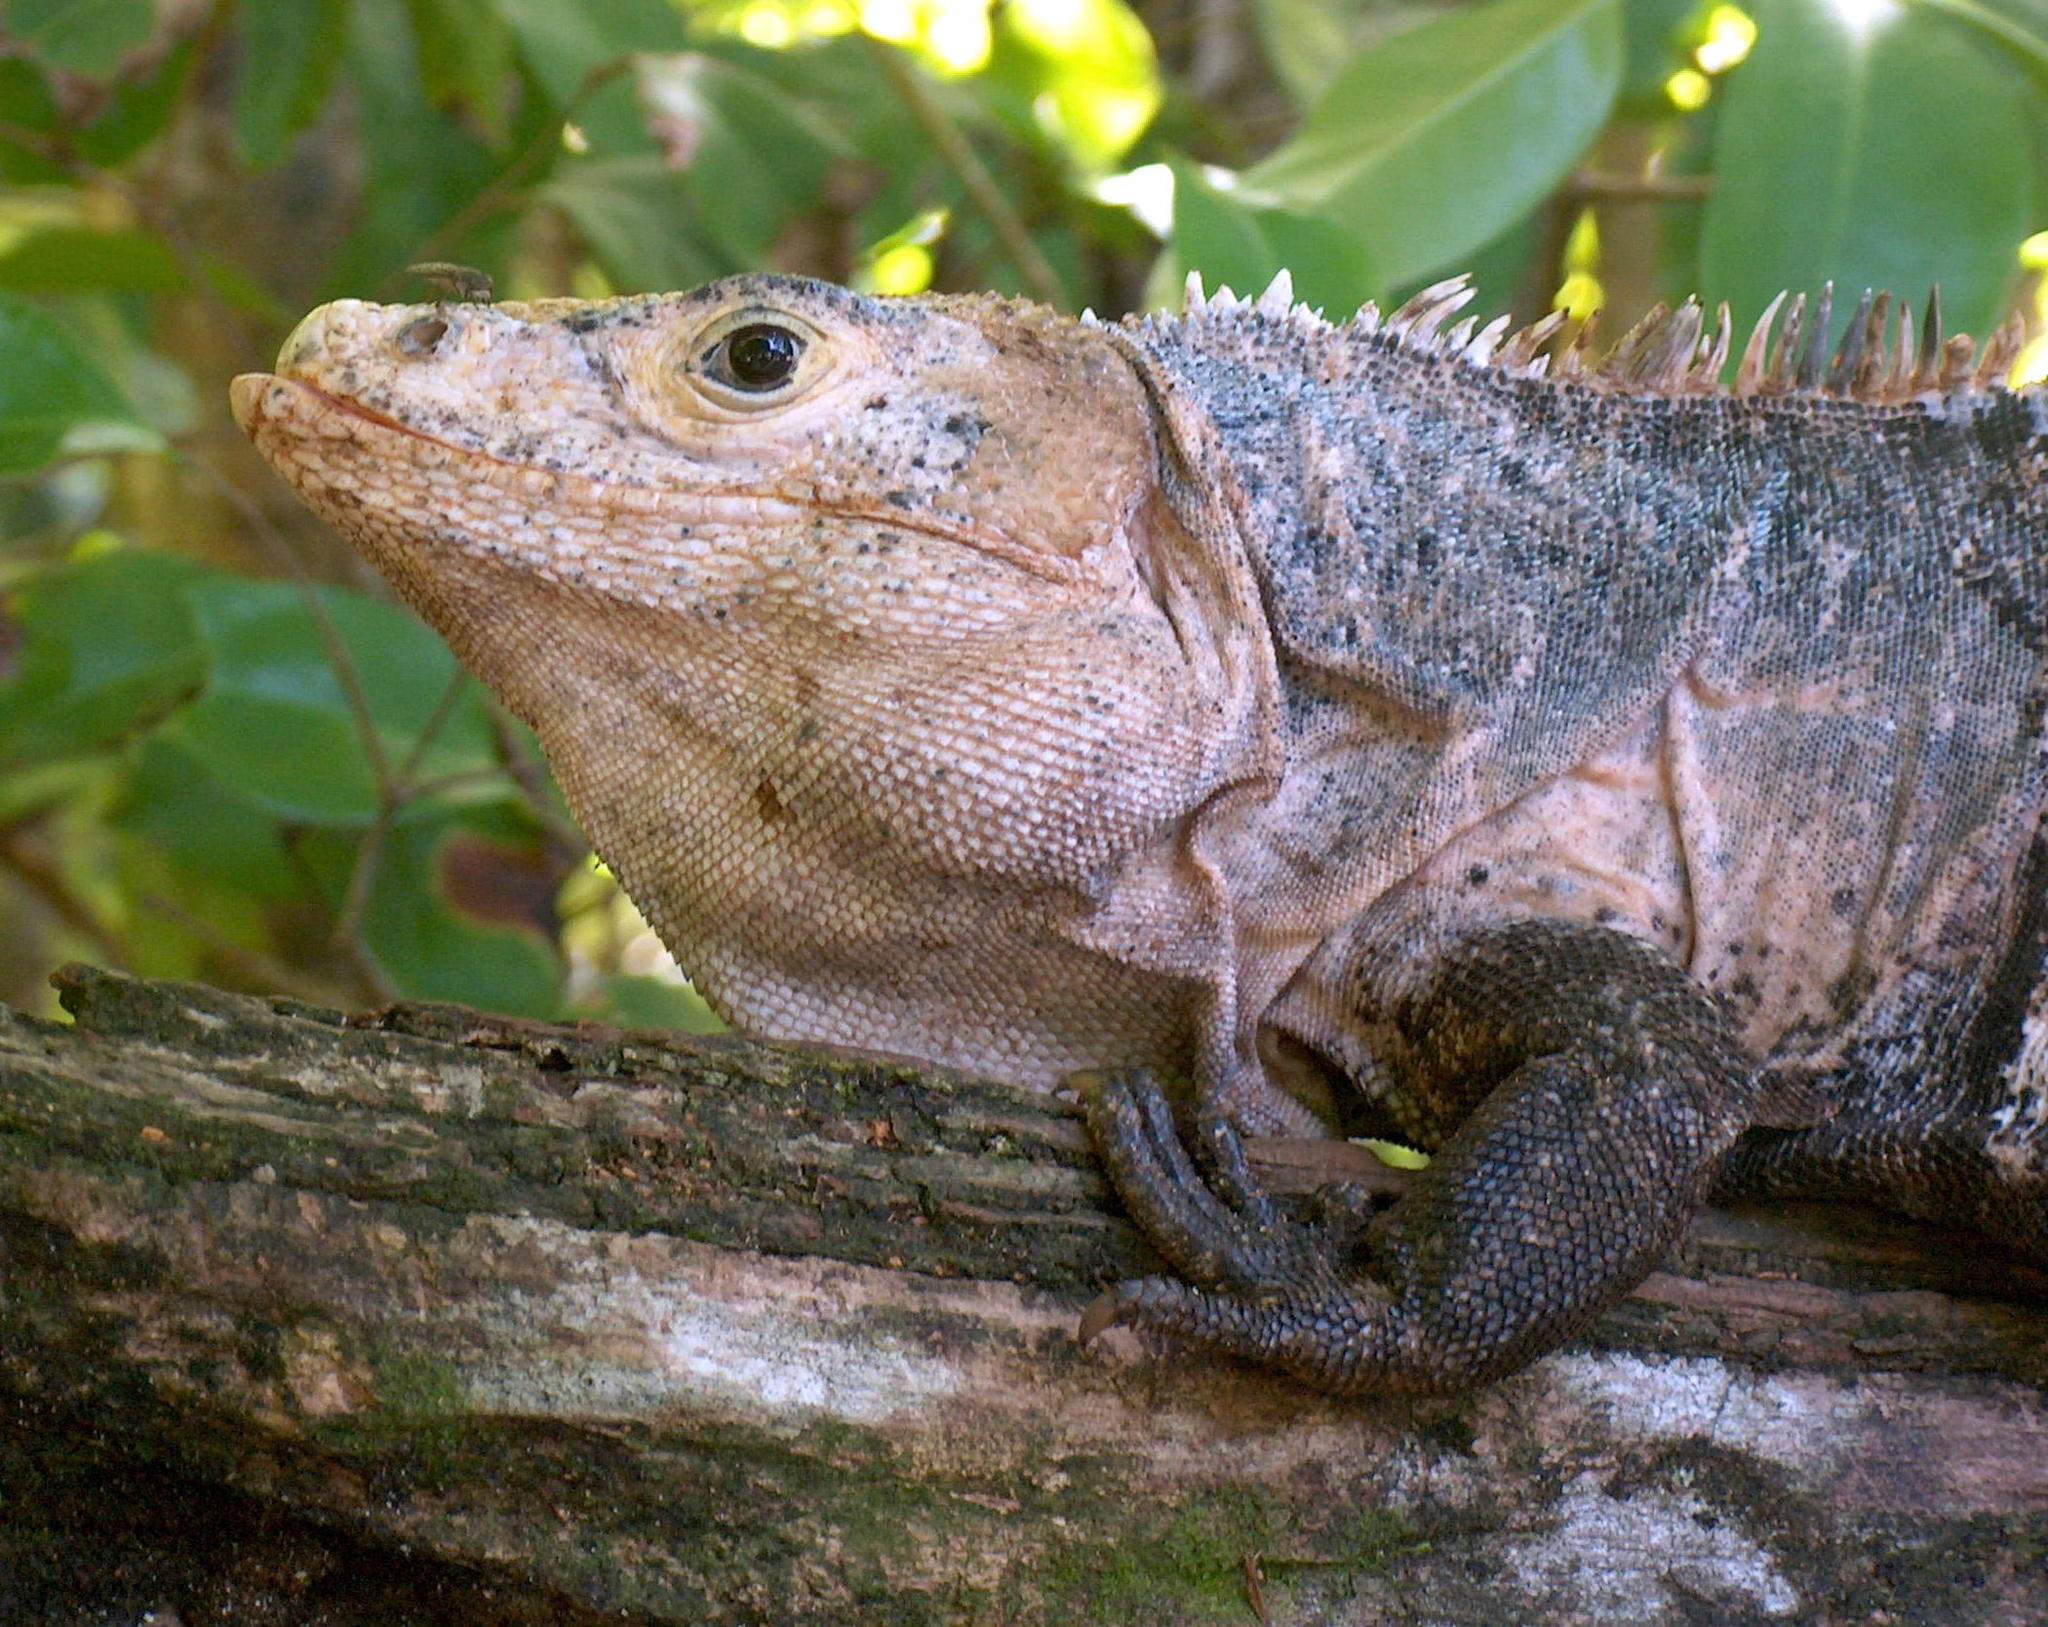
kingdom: Animalia
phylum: Chordata
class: Squamata
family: Iguanidae
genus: Ctenosaura
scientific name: Ctenosaura similis
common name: Black spiny-tailed iguana
